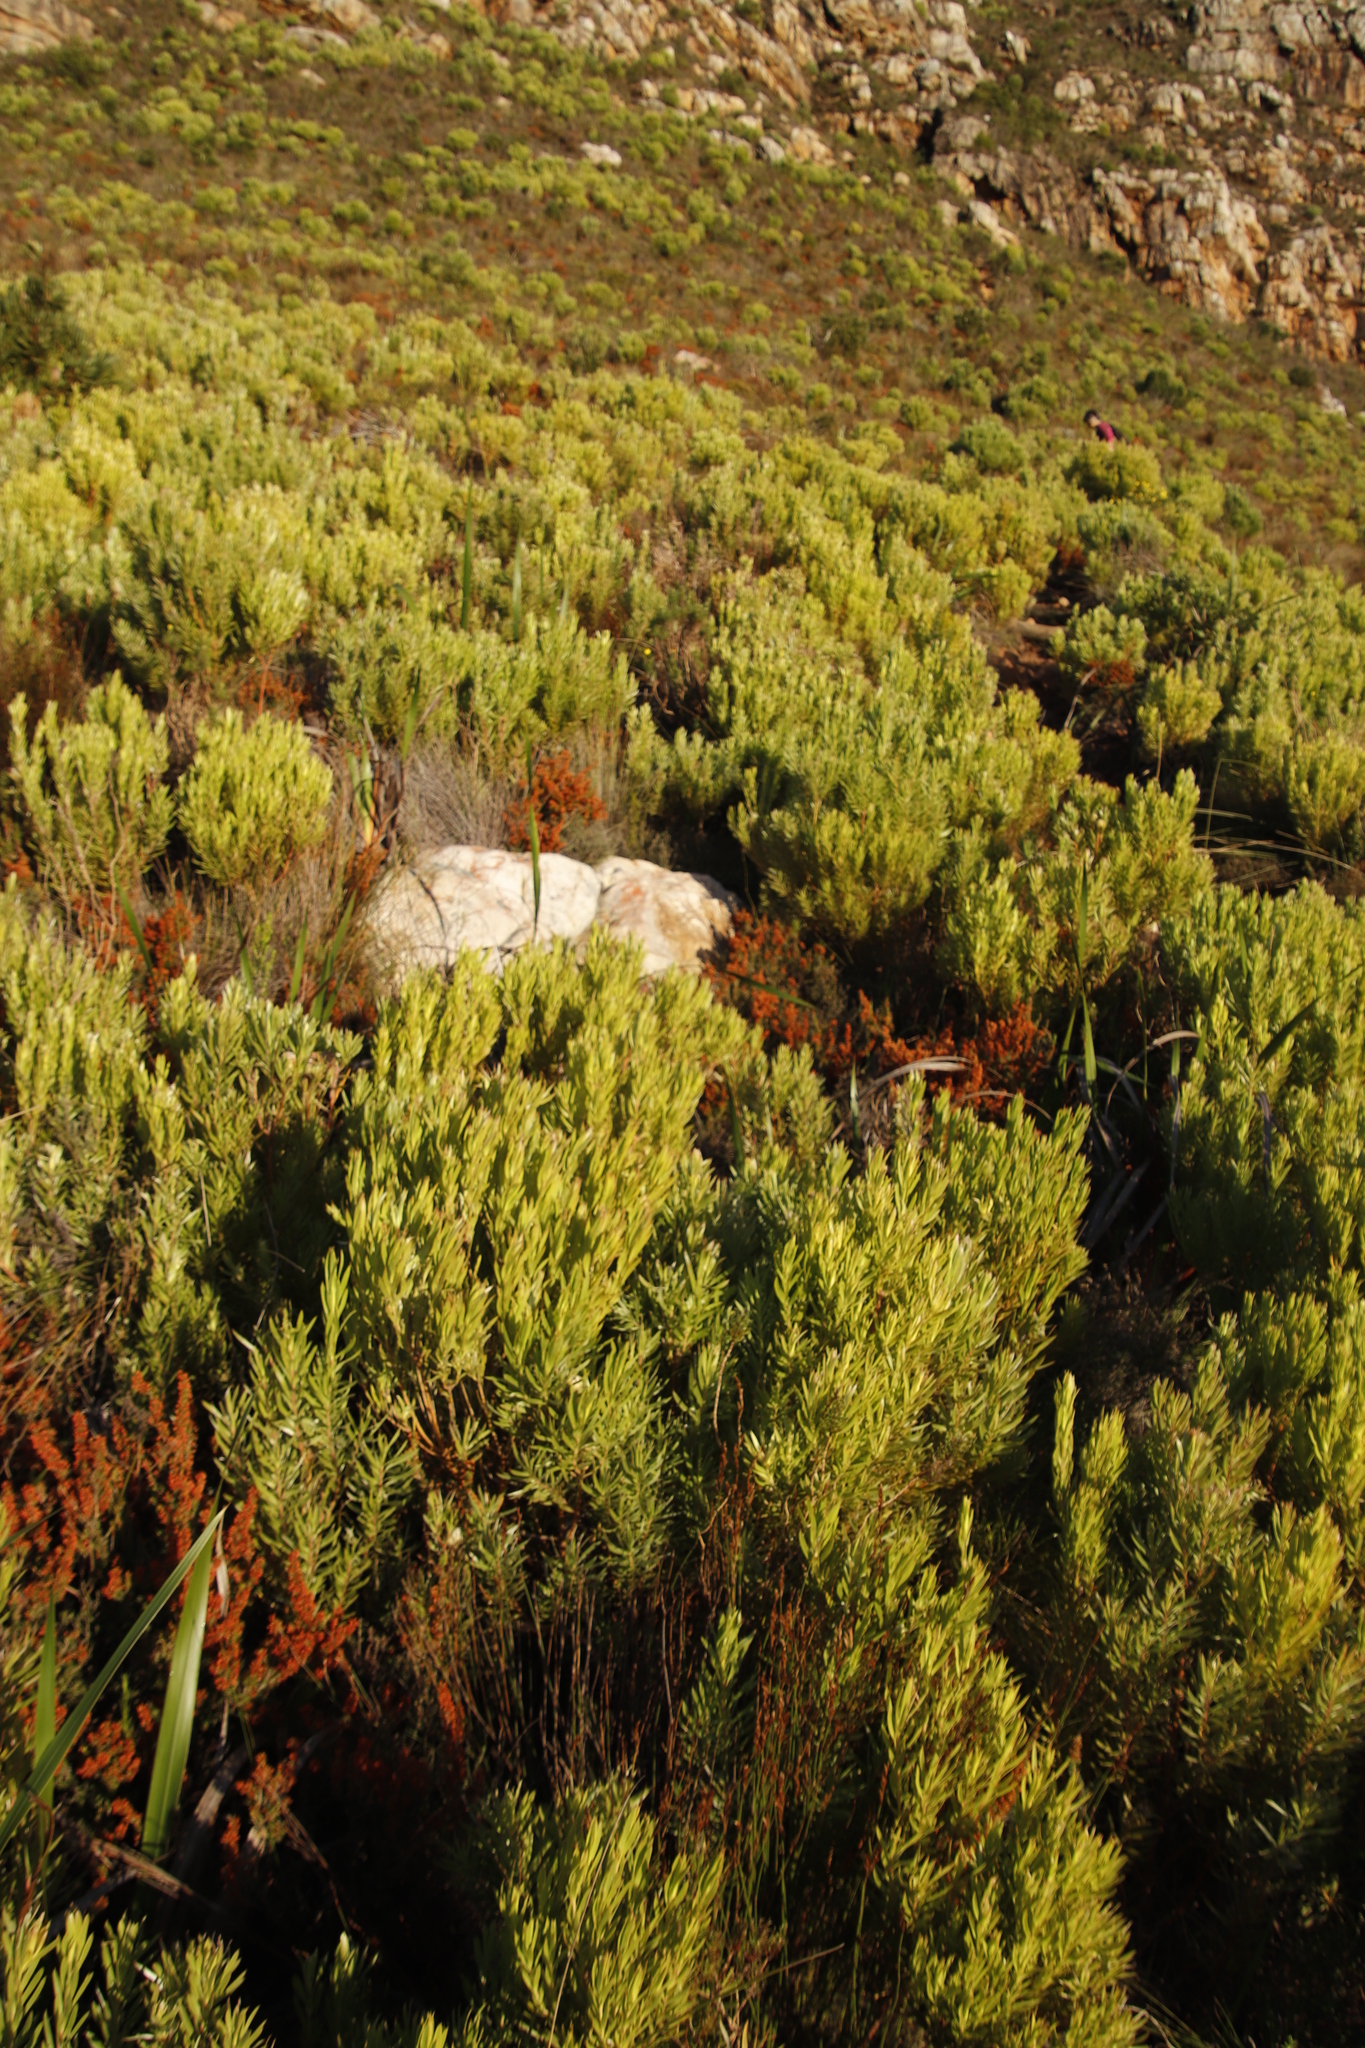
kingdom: Plantae
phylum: Tracheophyta
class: Magnoliopsida
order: Proteales
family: Proteaceae
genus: Leucadendron
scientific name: Leucadendron xanthoconus
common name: Sickle-leaf conebush
